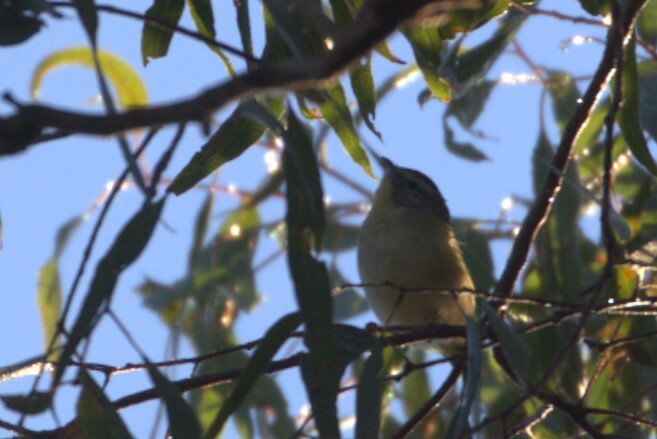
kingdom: Animalia
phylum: Chordata
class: Aves
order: Passeriformes
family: Pardalotidae
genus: Pardalotus
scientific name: Pardalotus punctatus
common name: Spotted pardalote
